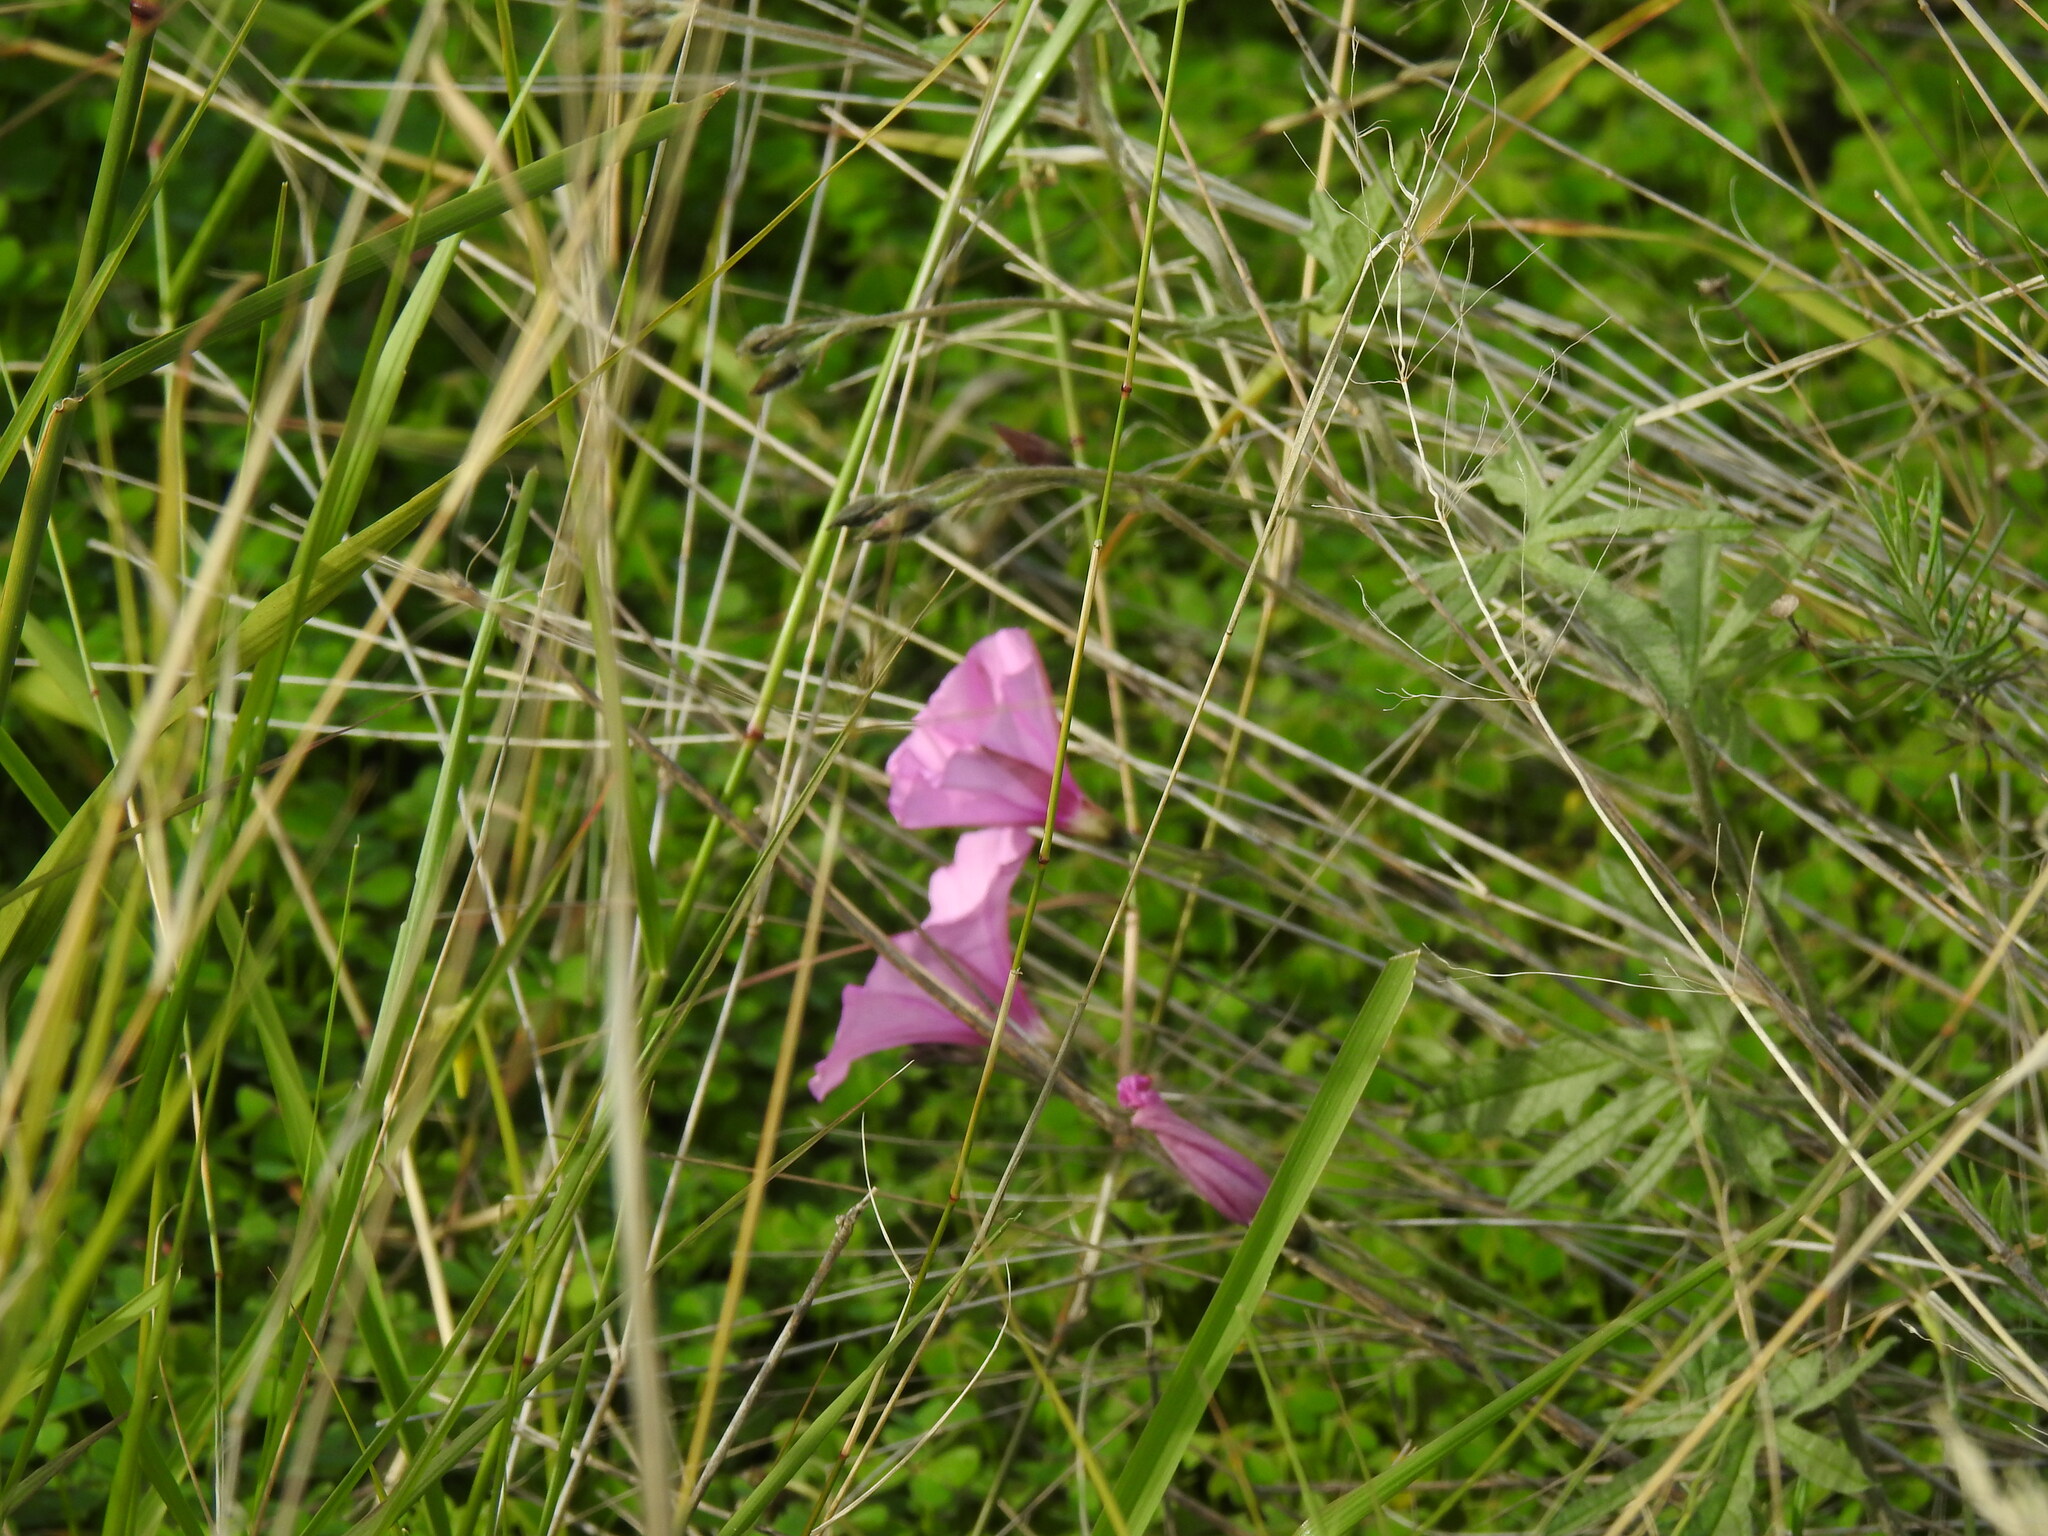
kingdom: Plantae
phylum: Tracheophyta
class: Magnoliopsida
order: Solanales
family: Convolvulaceae
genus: Convolvulus
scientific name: Convolvulus althaeoides
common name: Mallow bindweed
